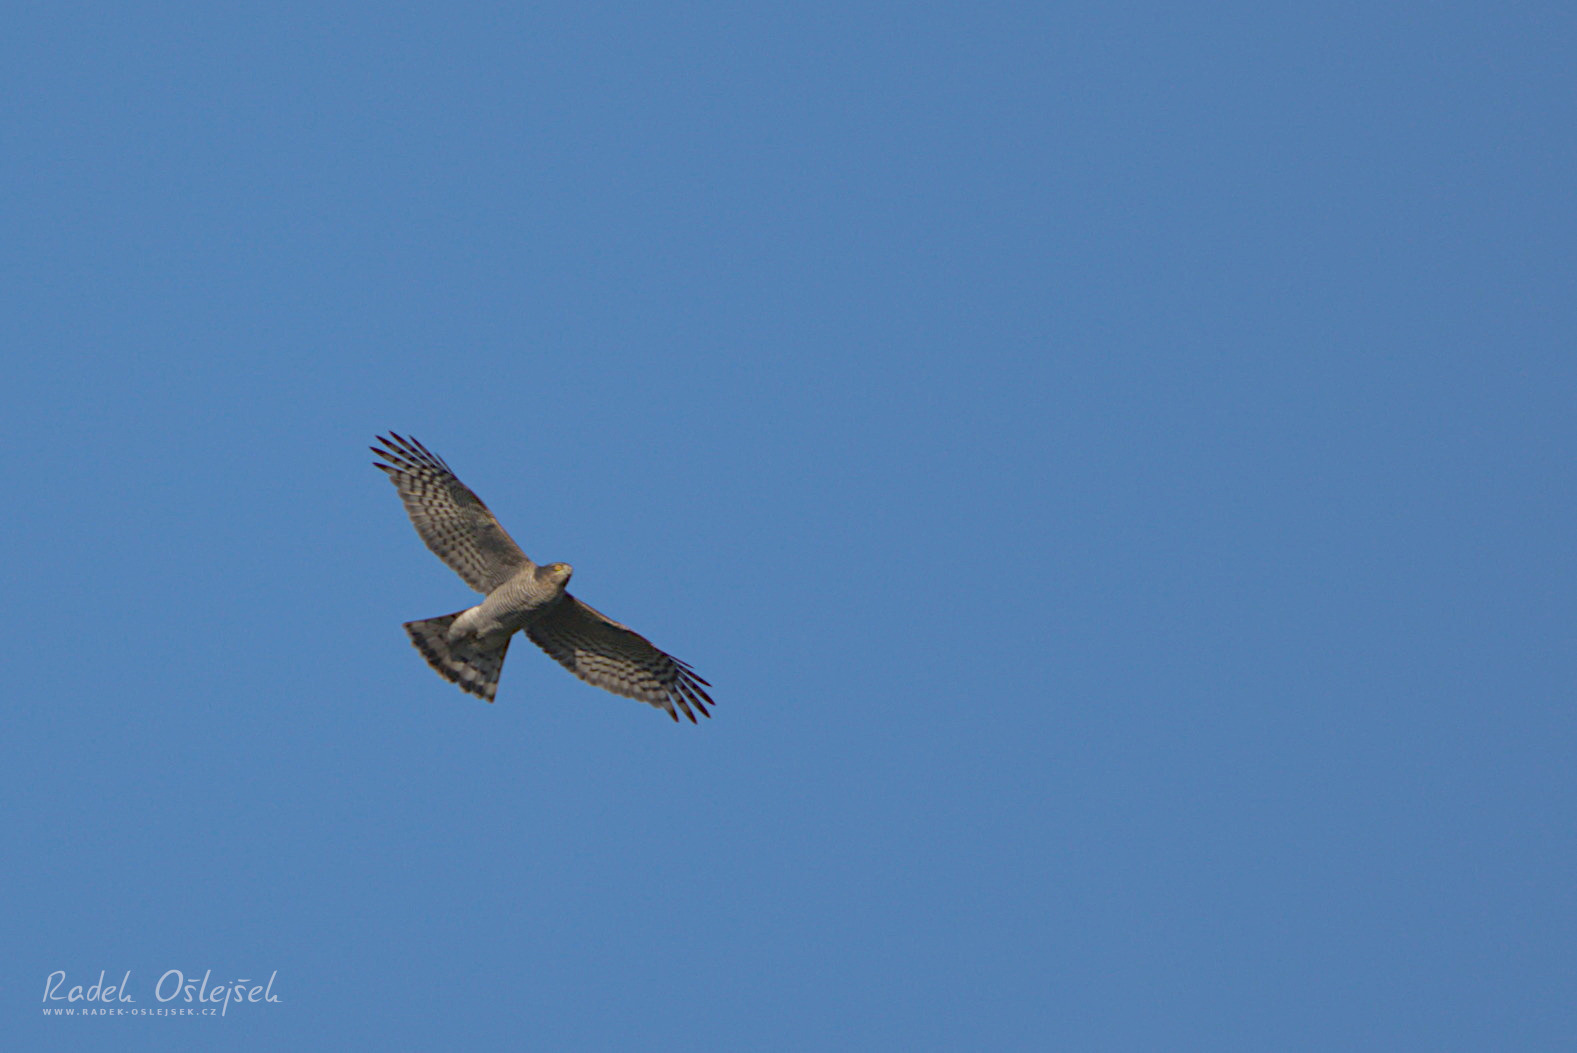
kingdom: Animalia
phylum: Chordata
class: Aves
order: Accipitriformes
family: Accipitridae
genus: Accipiter
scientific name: Accipiter nisus
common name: Eurasian sparrowhawk
